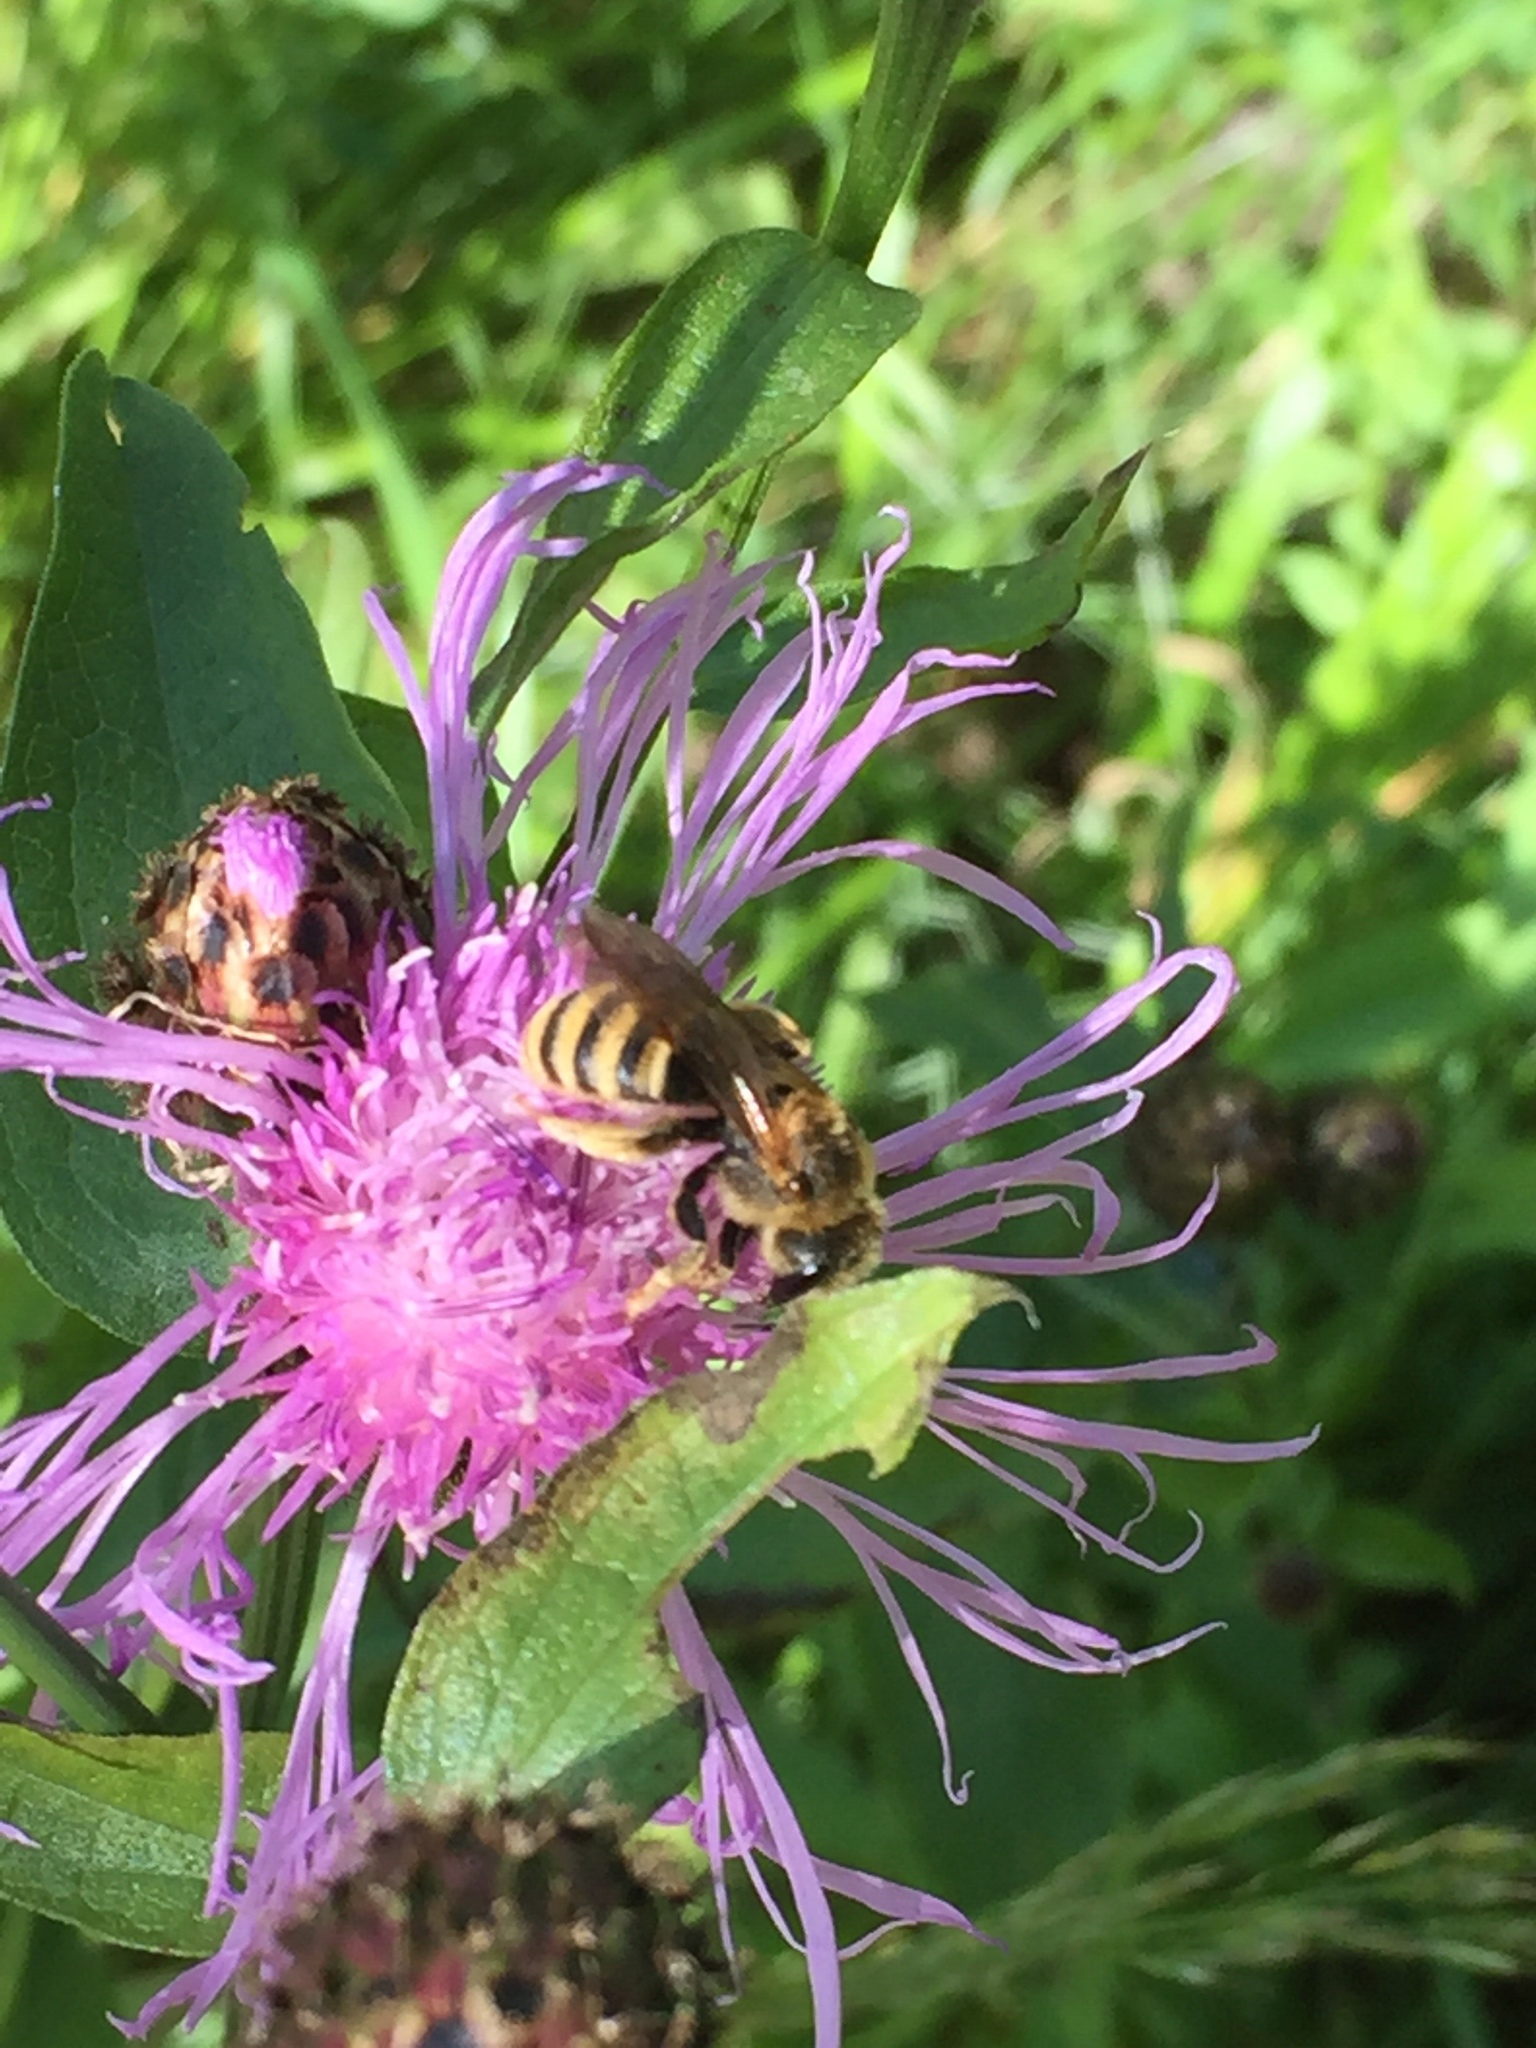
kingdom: Animalia
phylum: Arthropoda
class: Insecta
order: Hymenoptera
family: Halictidae
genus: Halictus
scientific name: Halictus scabiosae
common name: Great banded furrow bee
